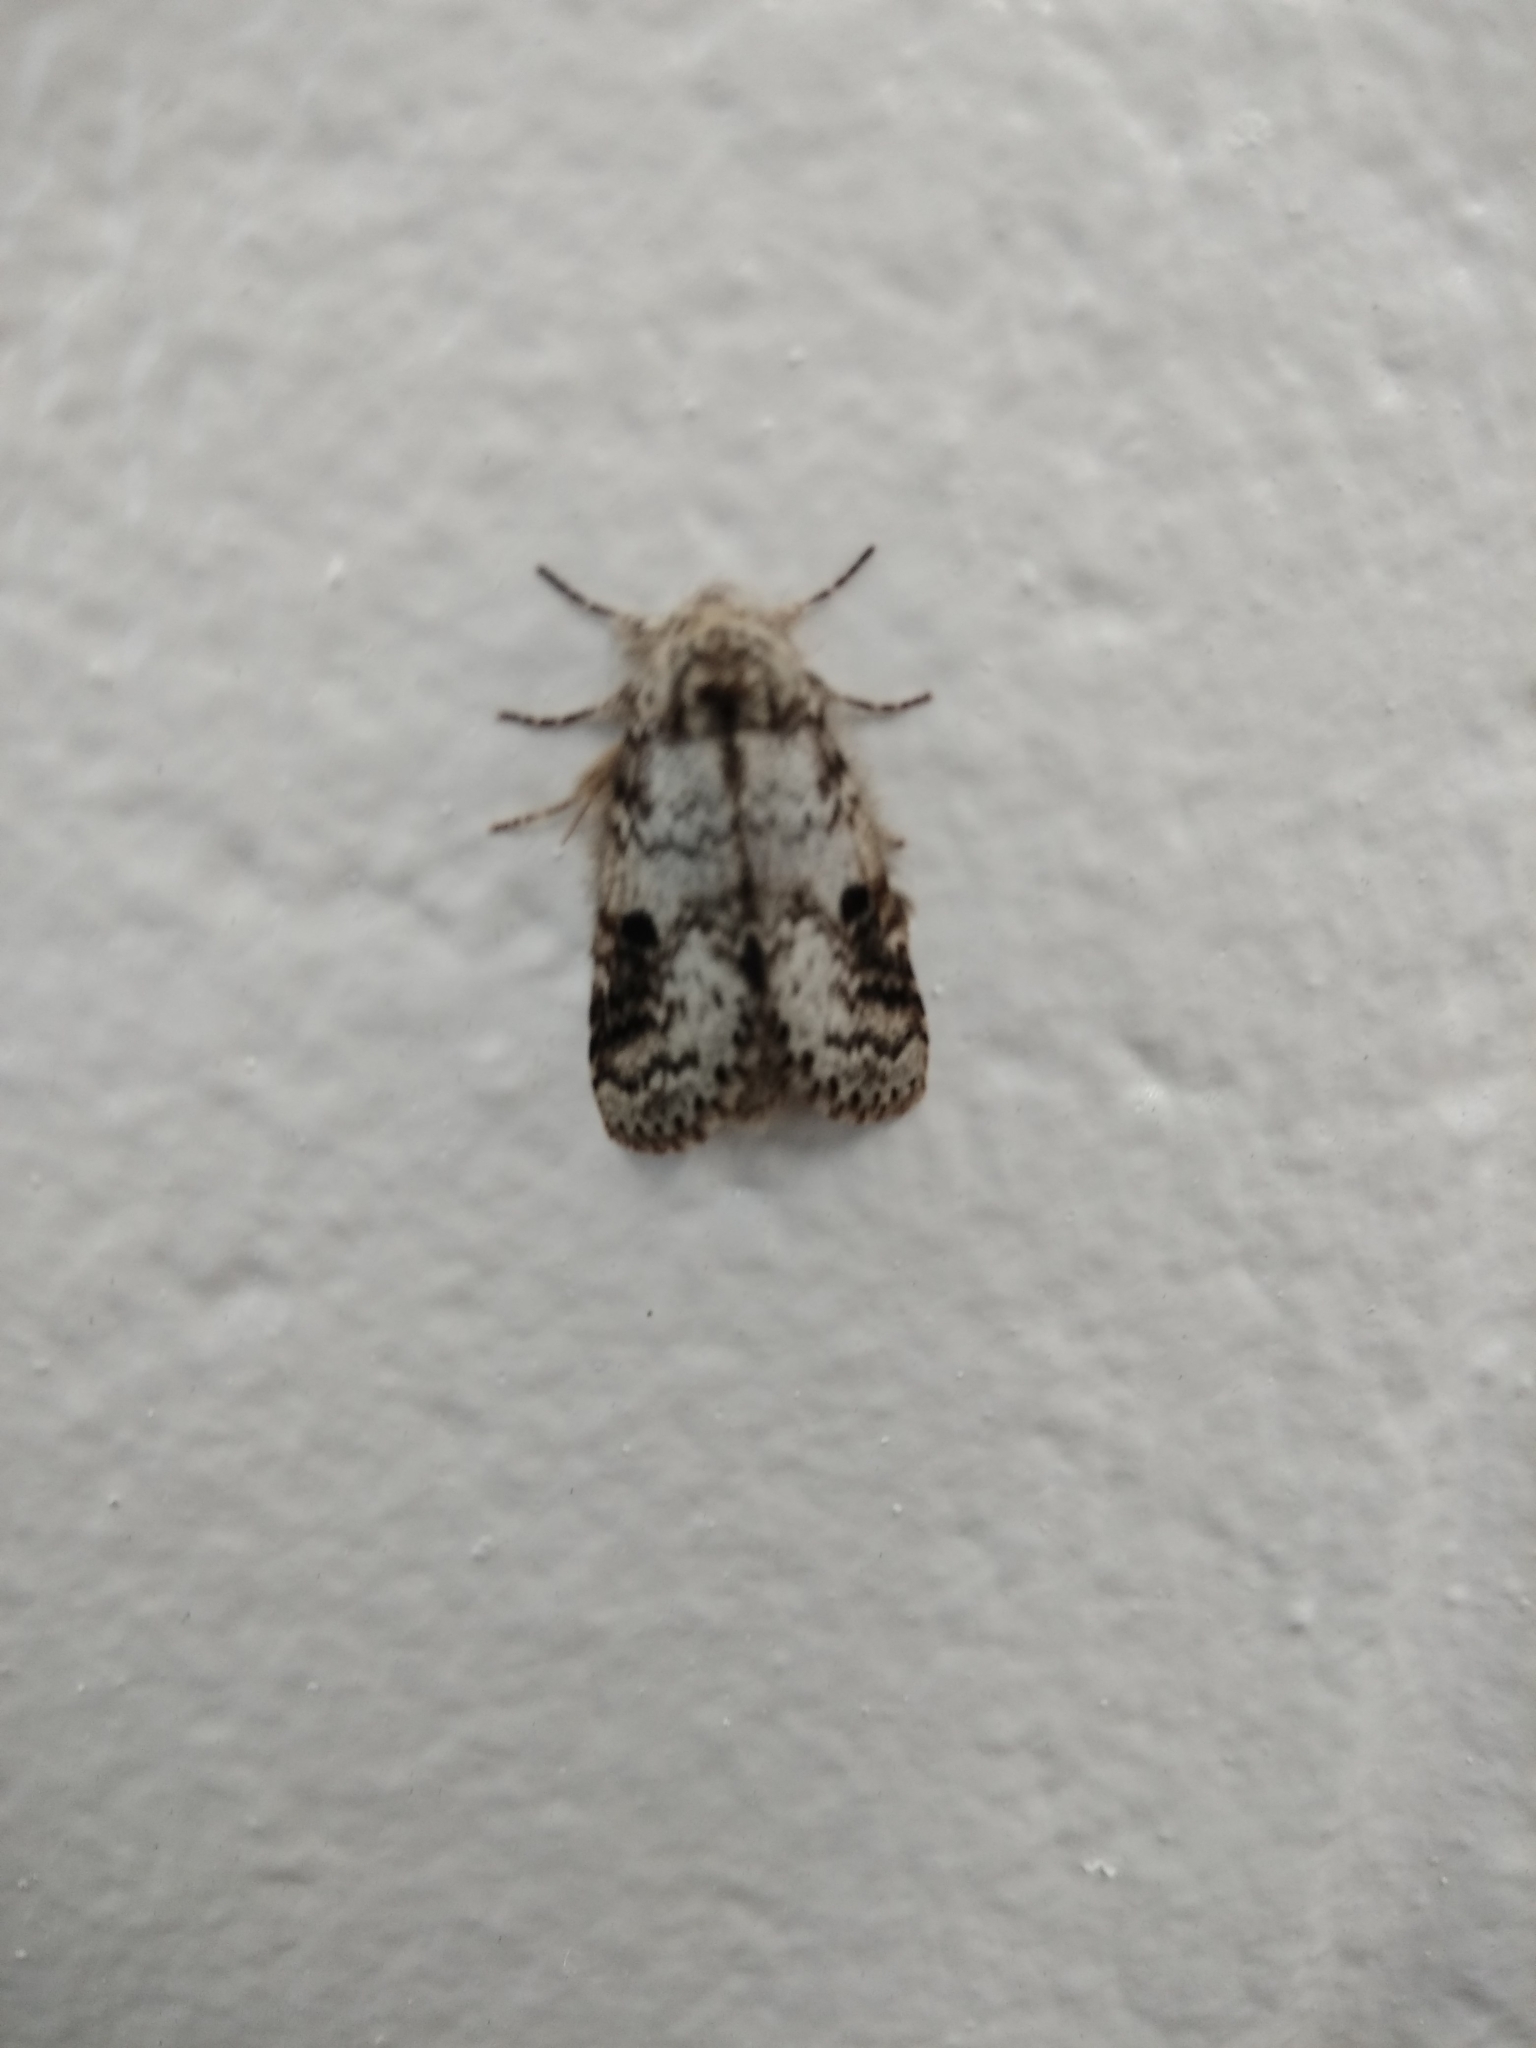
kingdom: Animalia
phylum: Arthropoda
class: Insecta
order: Lepidoptera
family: Notodontidae
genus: Lochmaeus
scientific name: Lochmaeus manteo
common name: Variable oakleaf caterpillar moth
